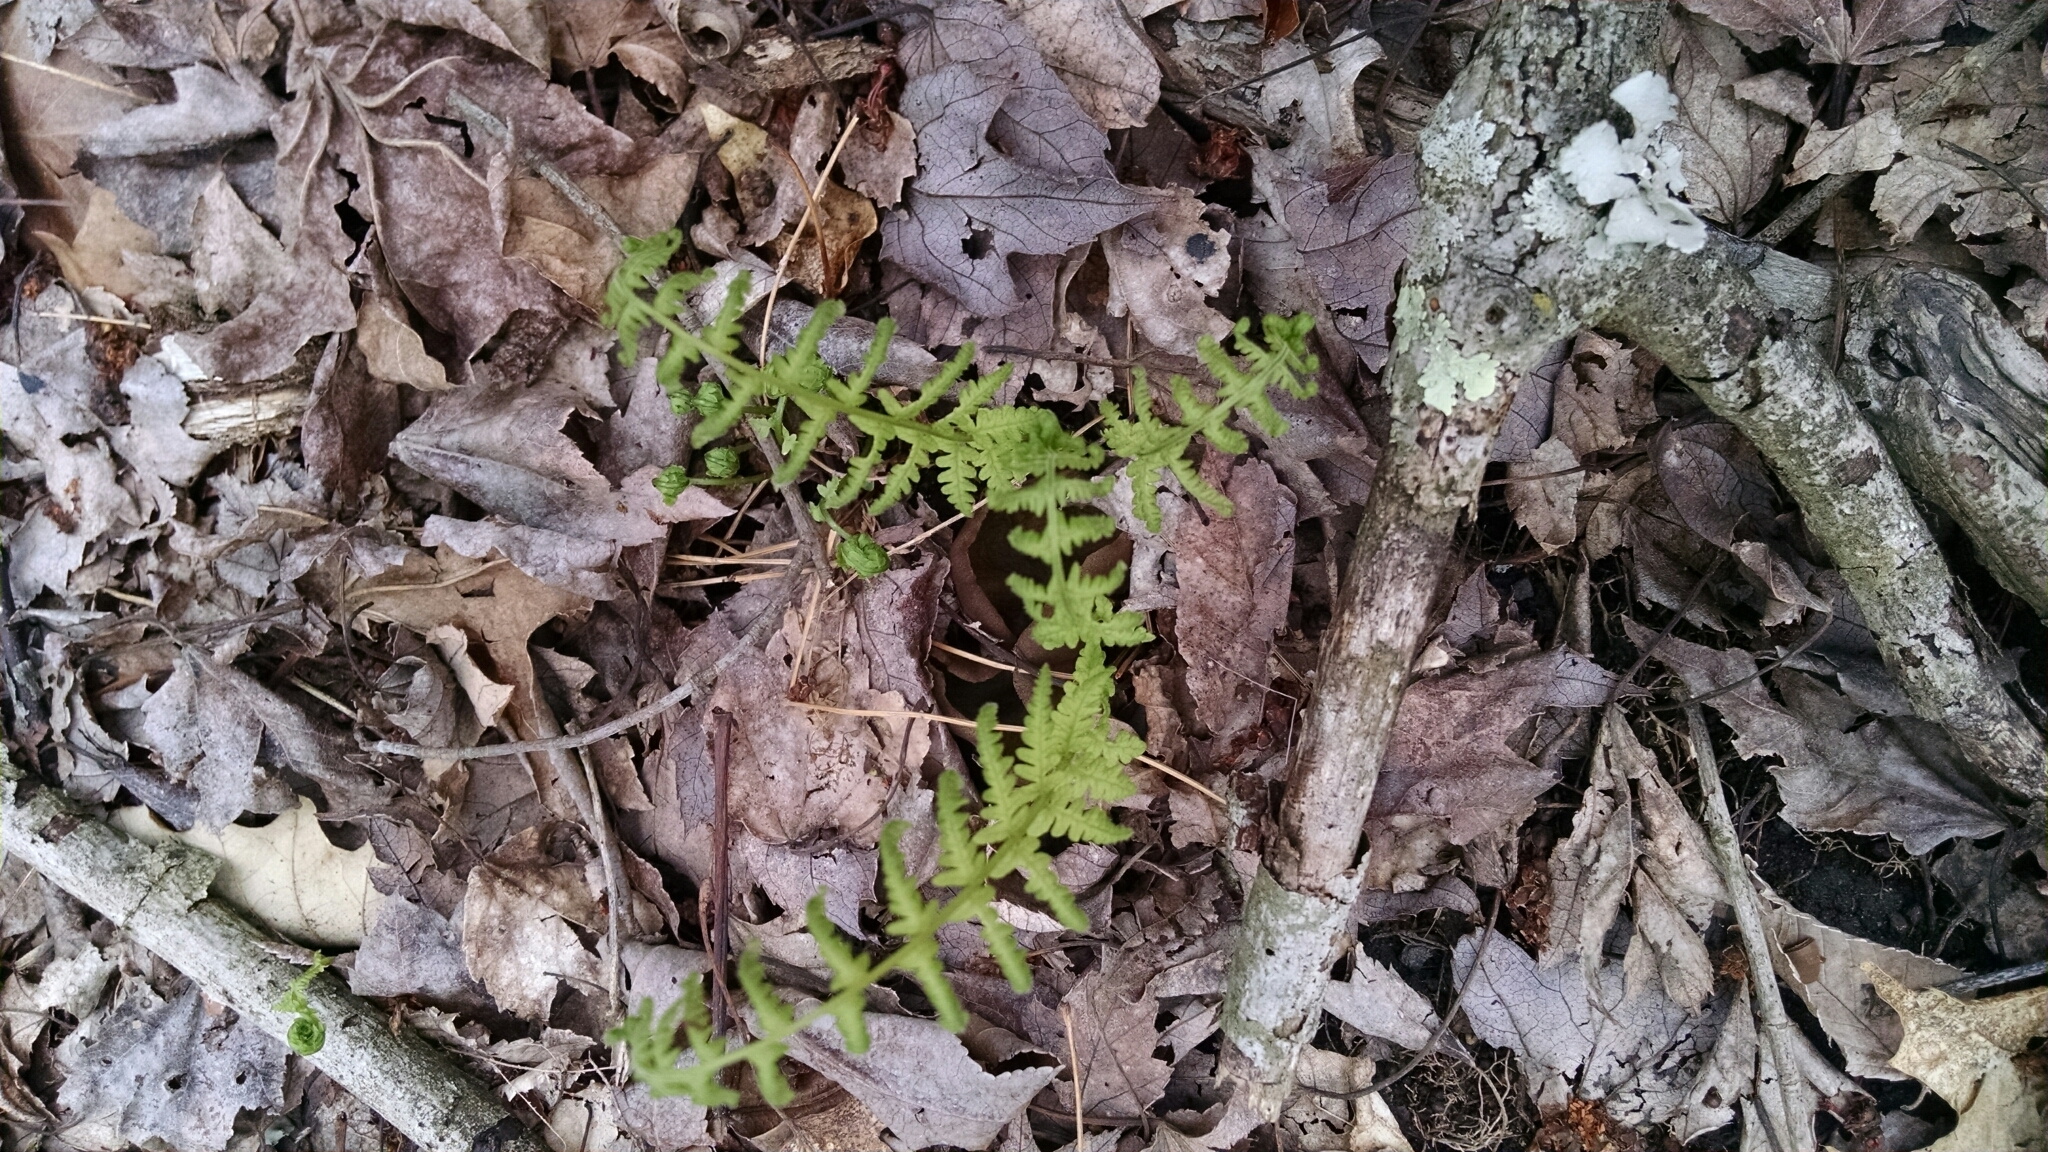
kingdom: Plantae
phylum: Tracheophyta
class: Polypodiopsida
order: Polypodiales
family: Thelypteridaceae
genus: Amauropelta
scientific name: Amauropelta noveboracensis
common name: New york fern
